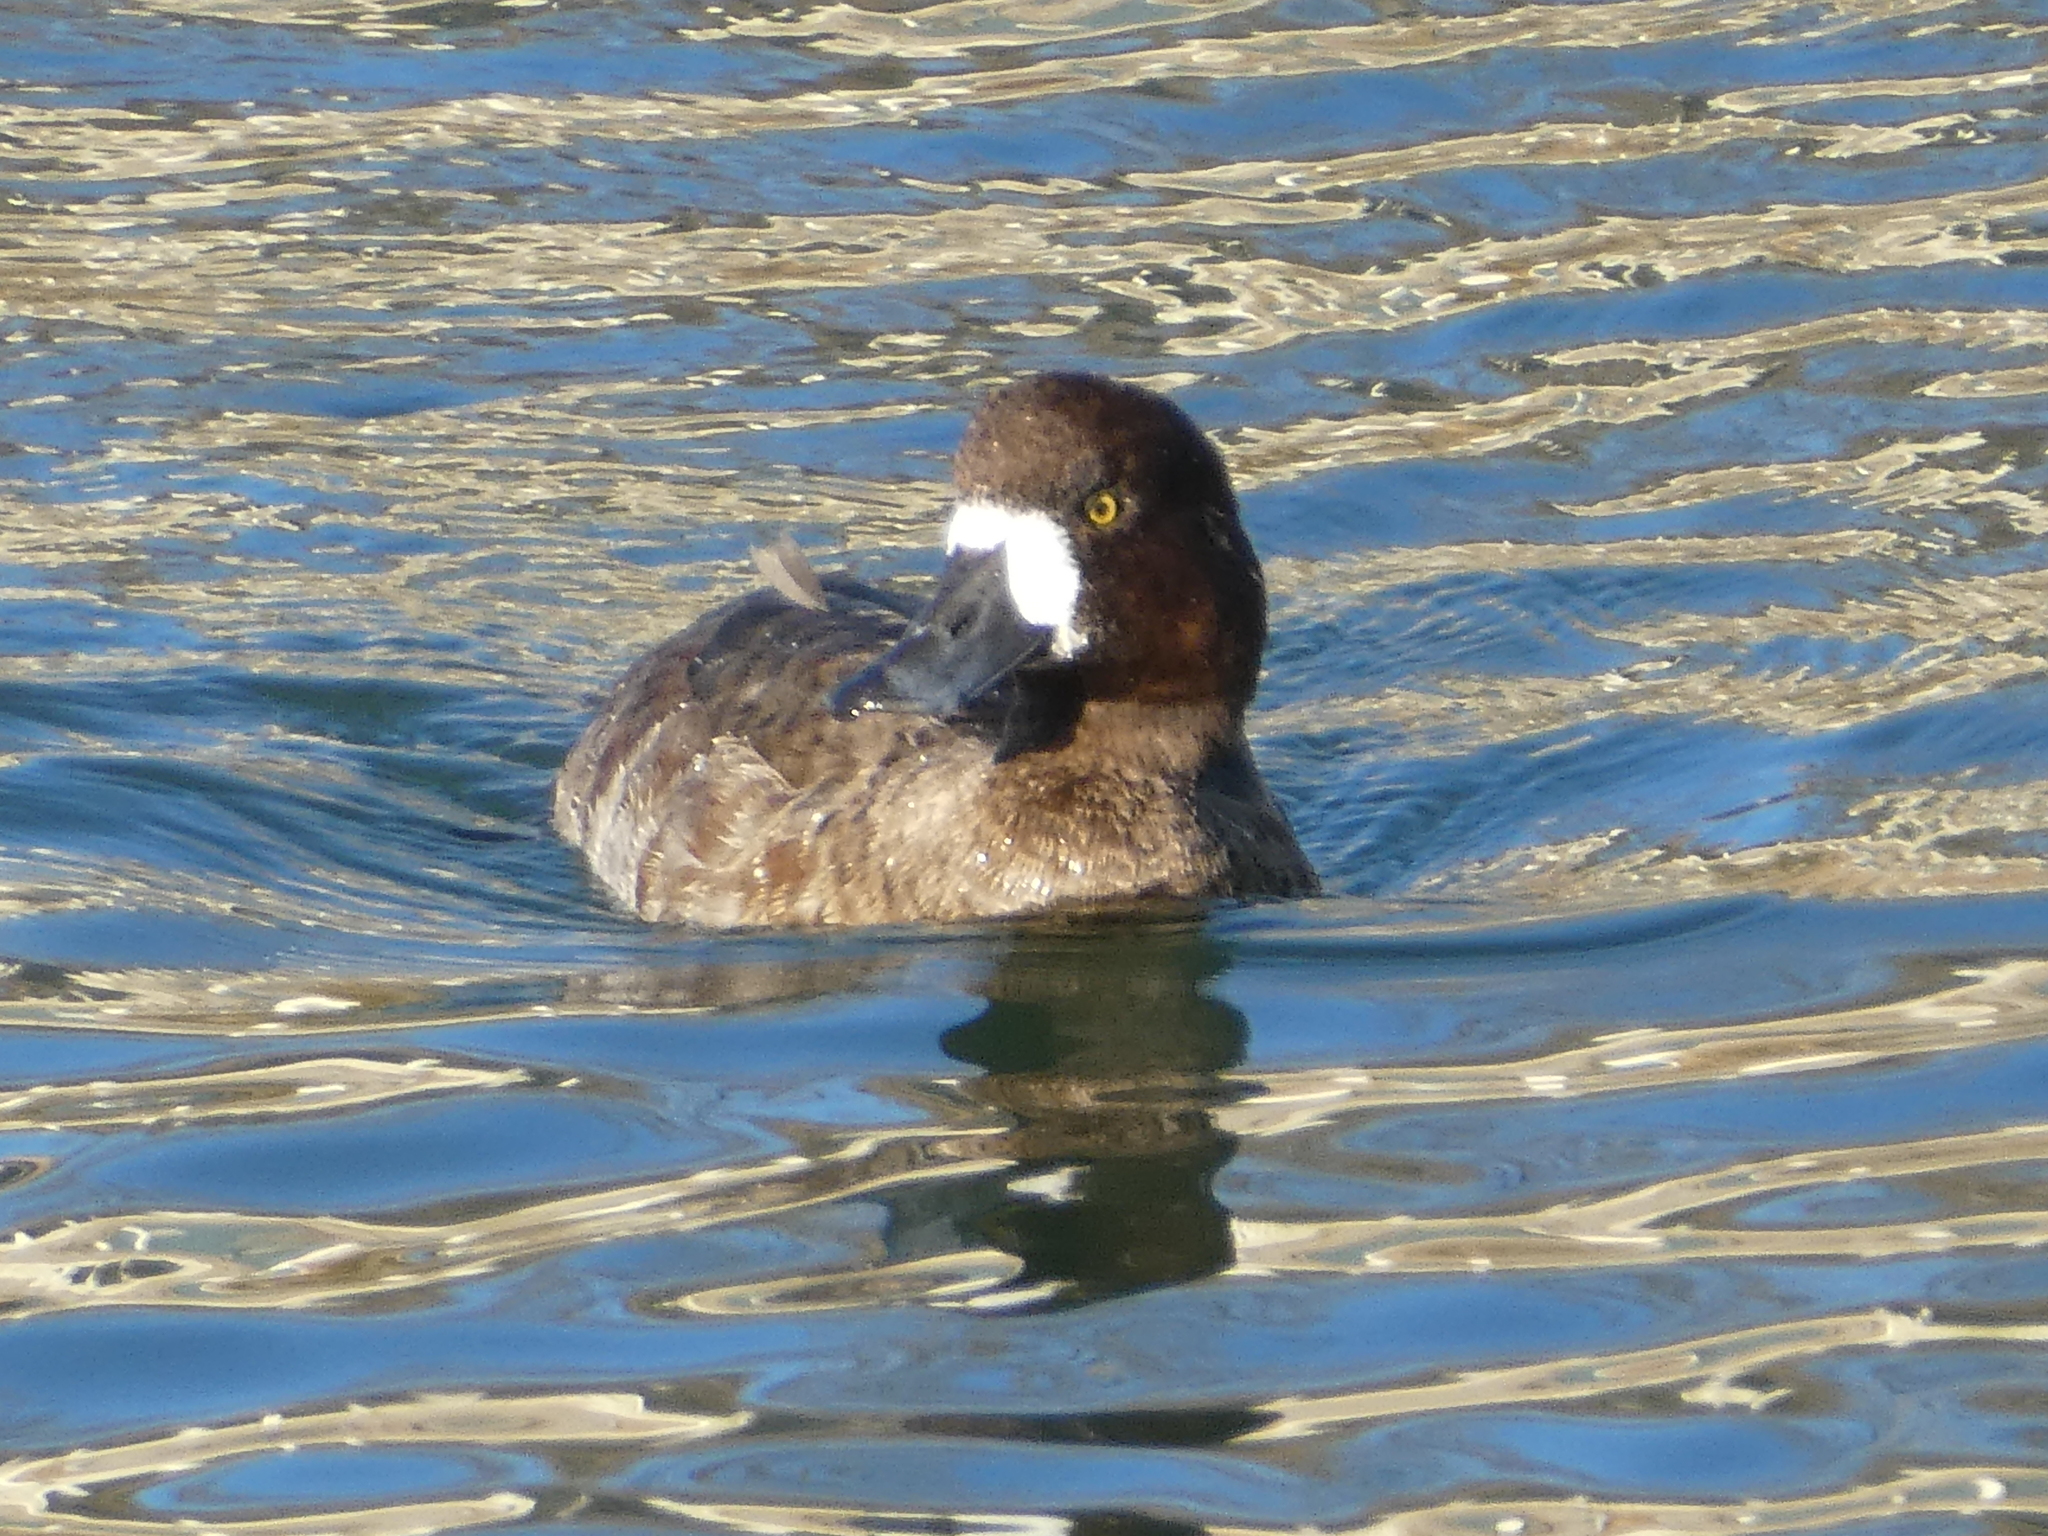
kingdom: Animalia
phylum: Chordata
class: Aves
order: Anseriformes
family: Anatidae
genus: Aythya
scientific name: Aythya marila
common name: Greater scaup
